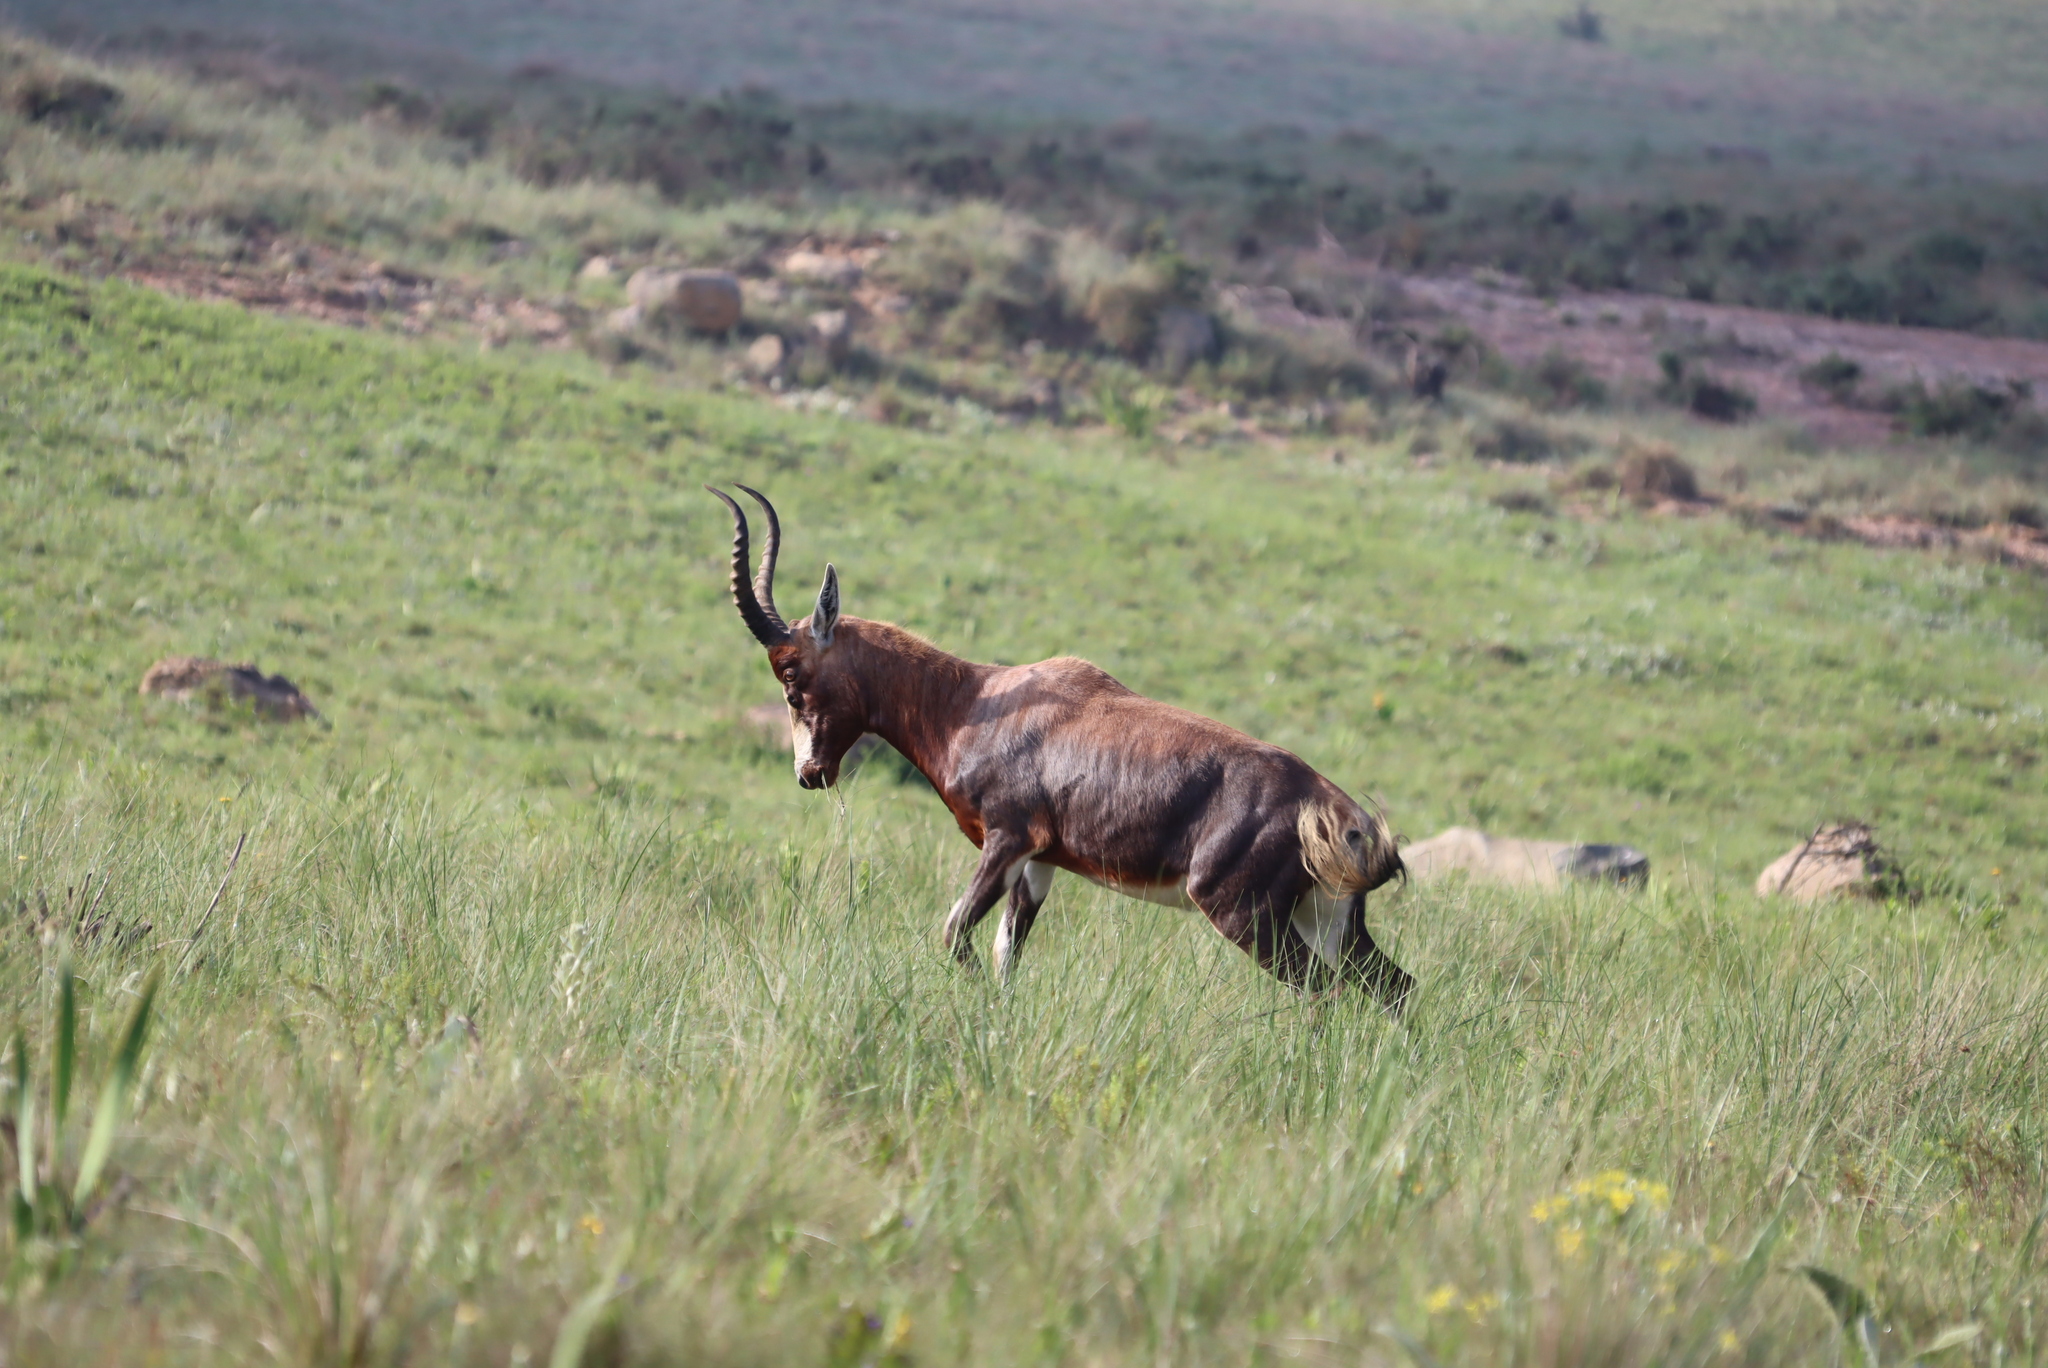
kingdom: Animalia
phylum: Chordata
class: Mammalia
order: Artiodactyla
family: Bovidae
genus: Damaliscus
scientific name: Damaliscus pygargus
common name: Bontebok
